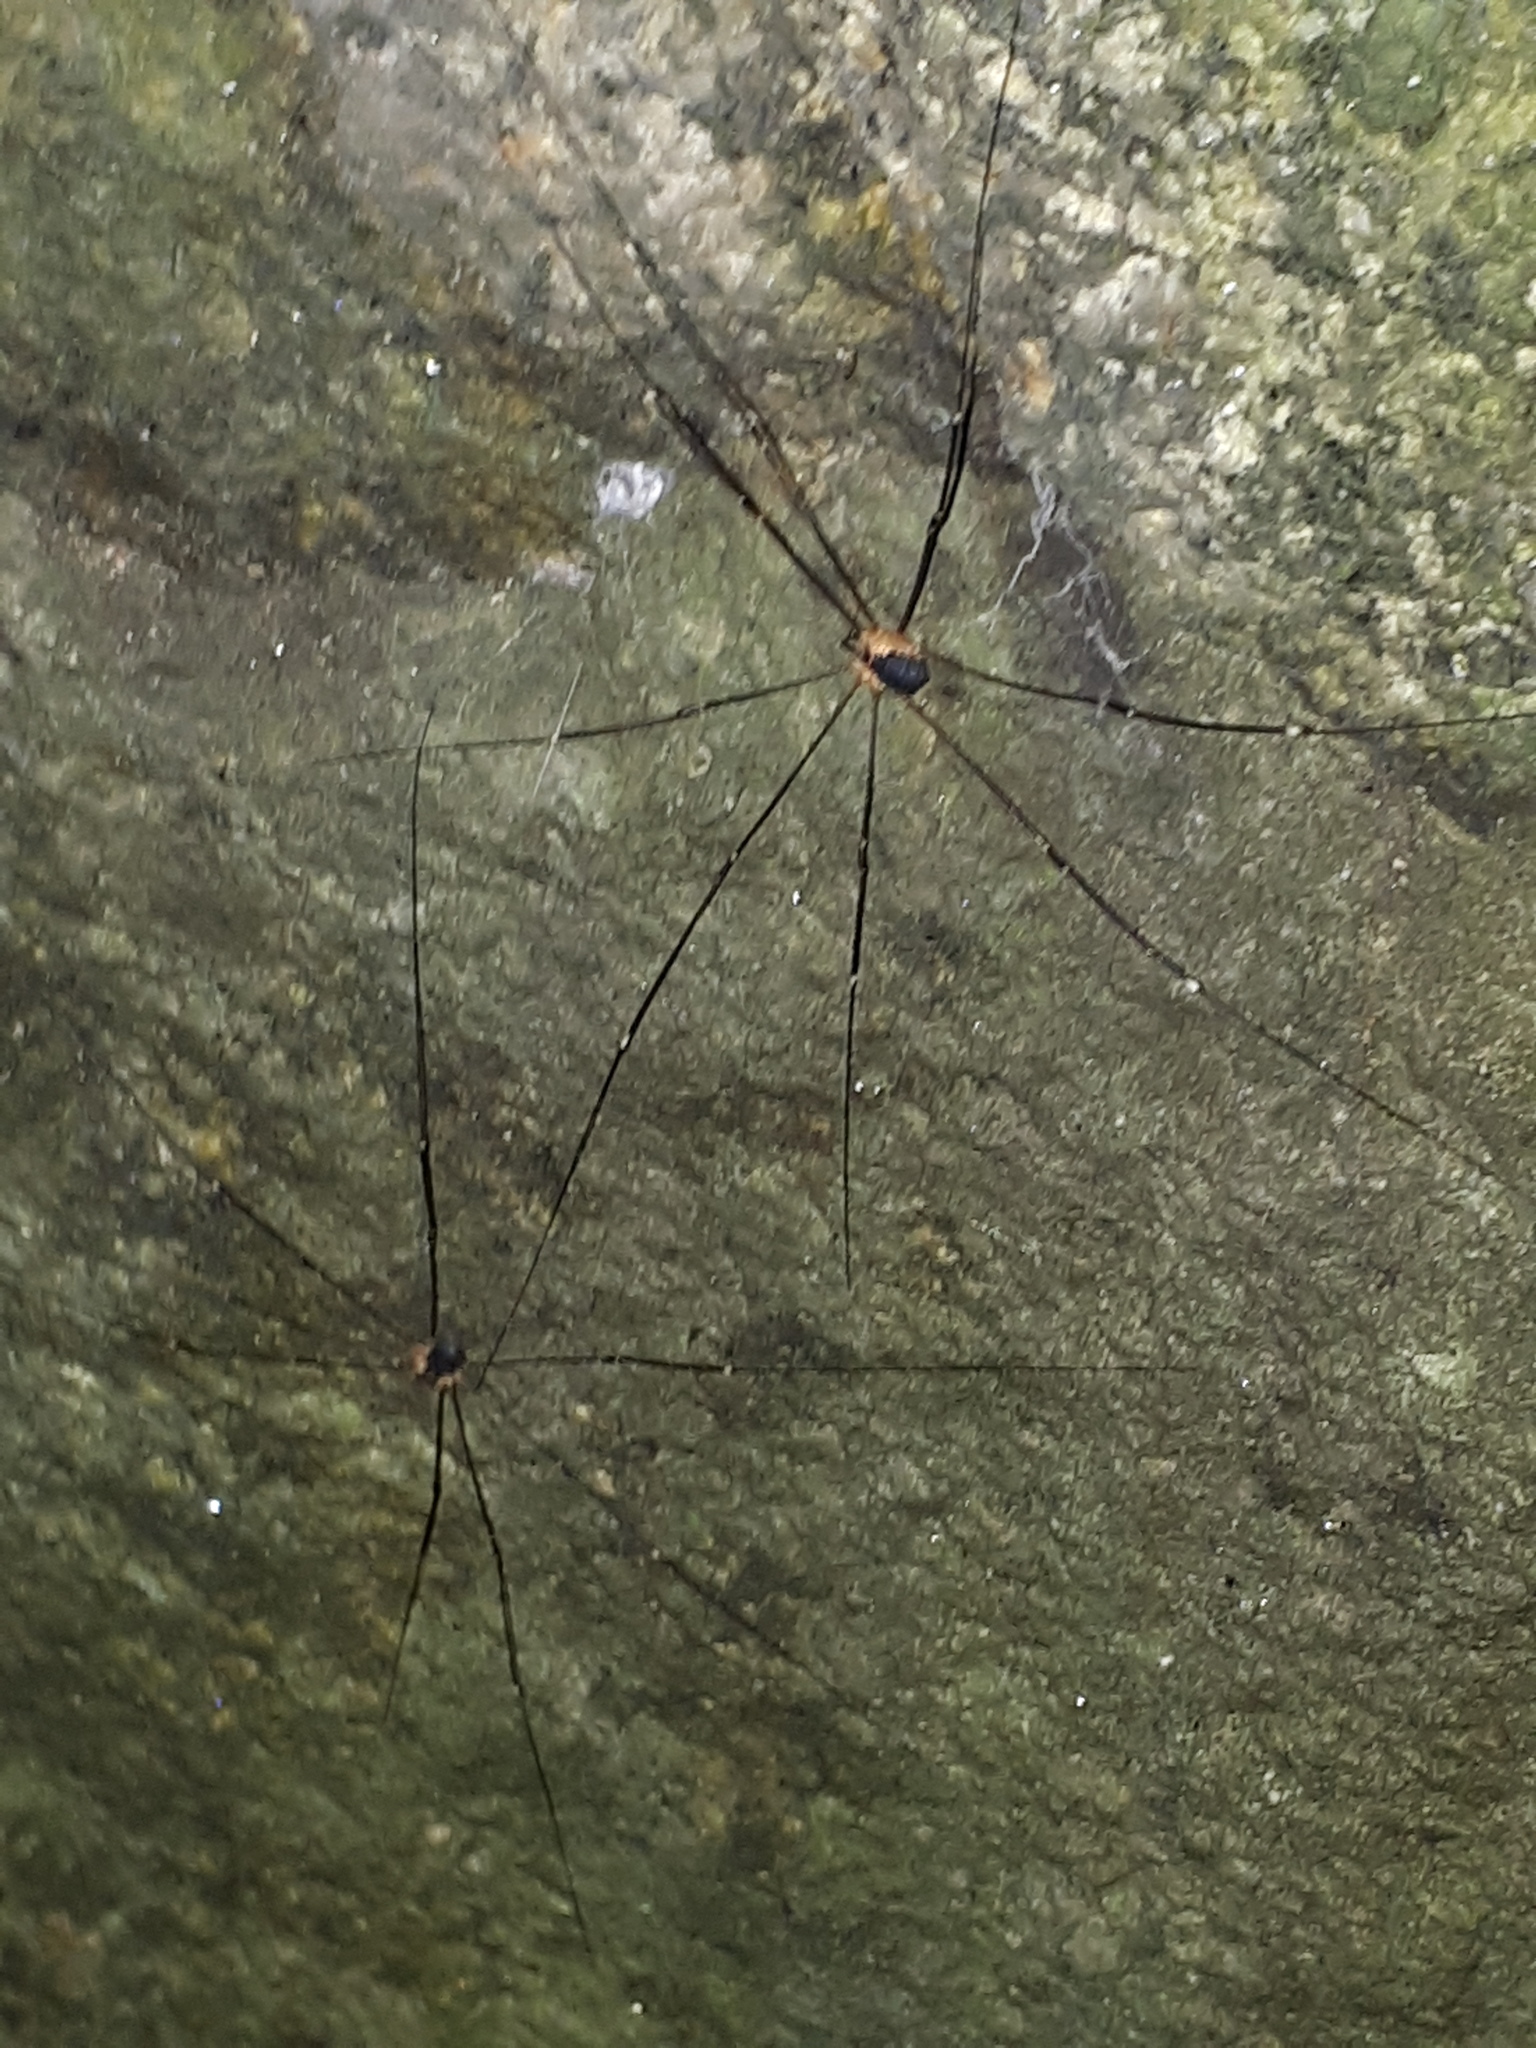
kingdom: Animalia
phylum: Arthropoda
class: Arachnida
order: Opiliones
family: Sclerosomatidae
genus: Leiobunum
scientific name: Leiobunum rupestre
